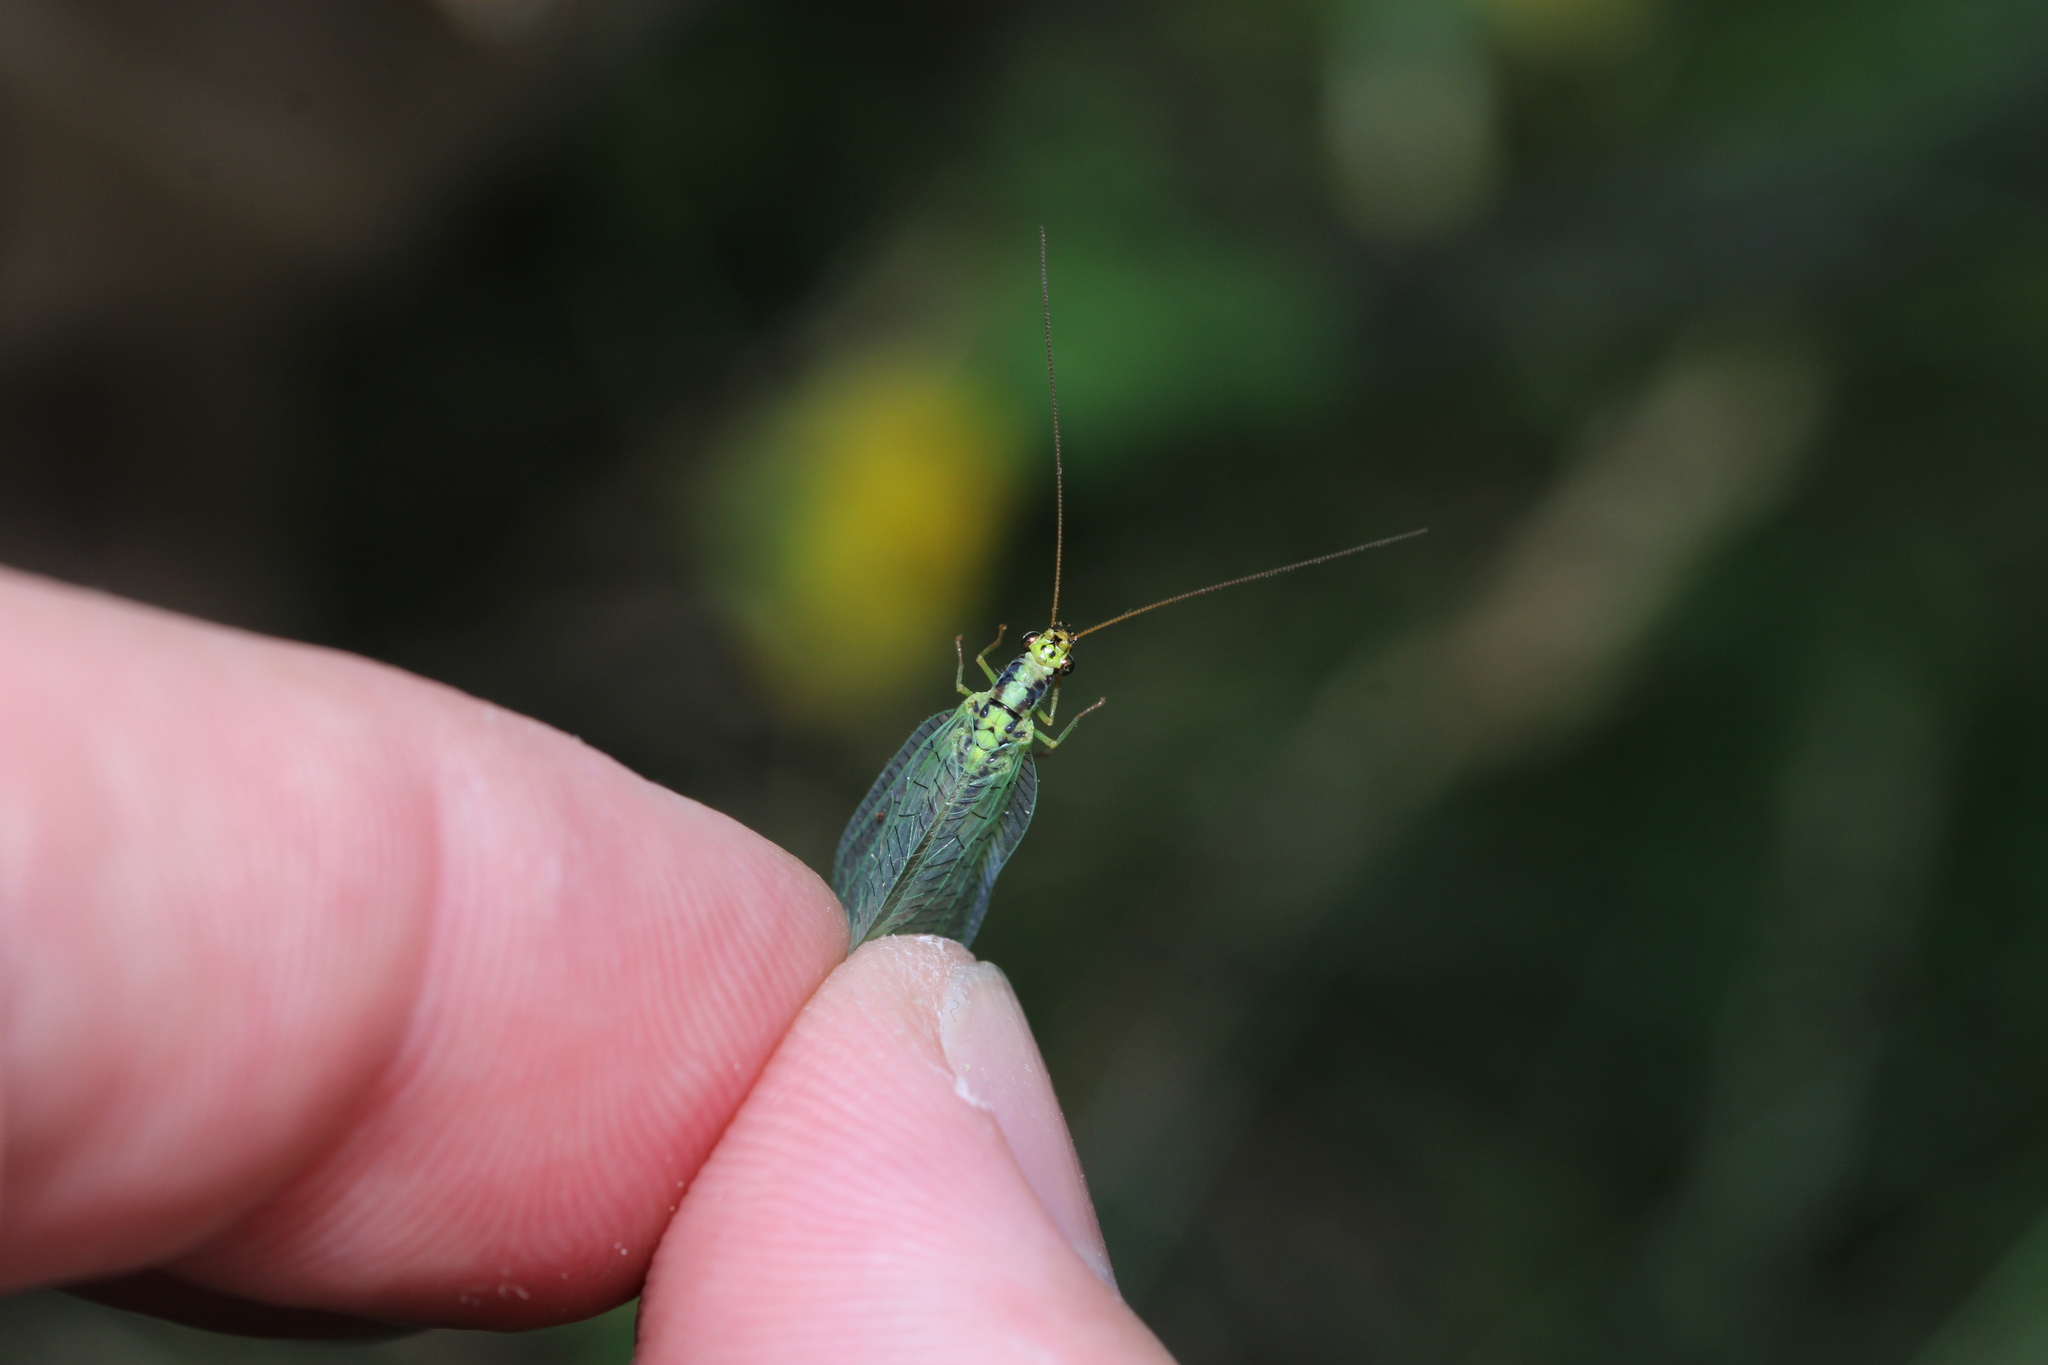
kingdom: Animalia
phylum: Arthropoda
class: Insecta
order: Neuroptera
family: Chrysopidae
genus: Chrysopa
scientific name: Chrysopa walkeri
